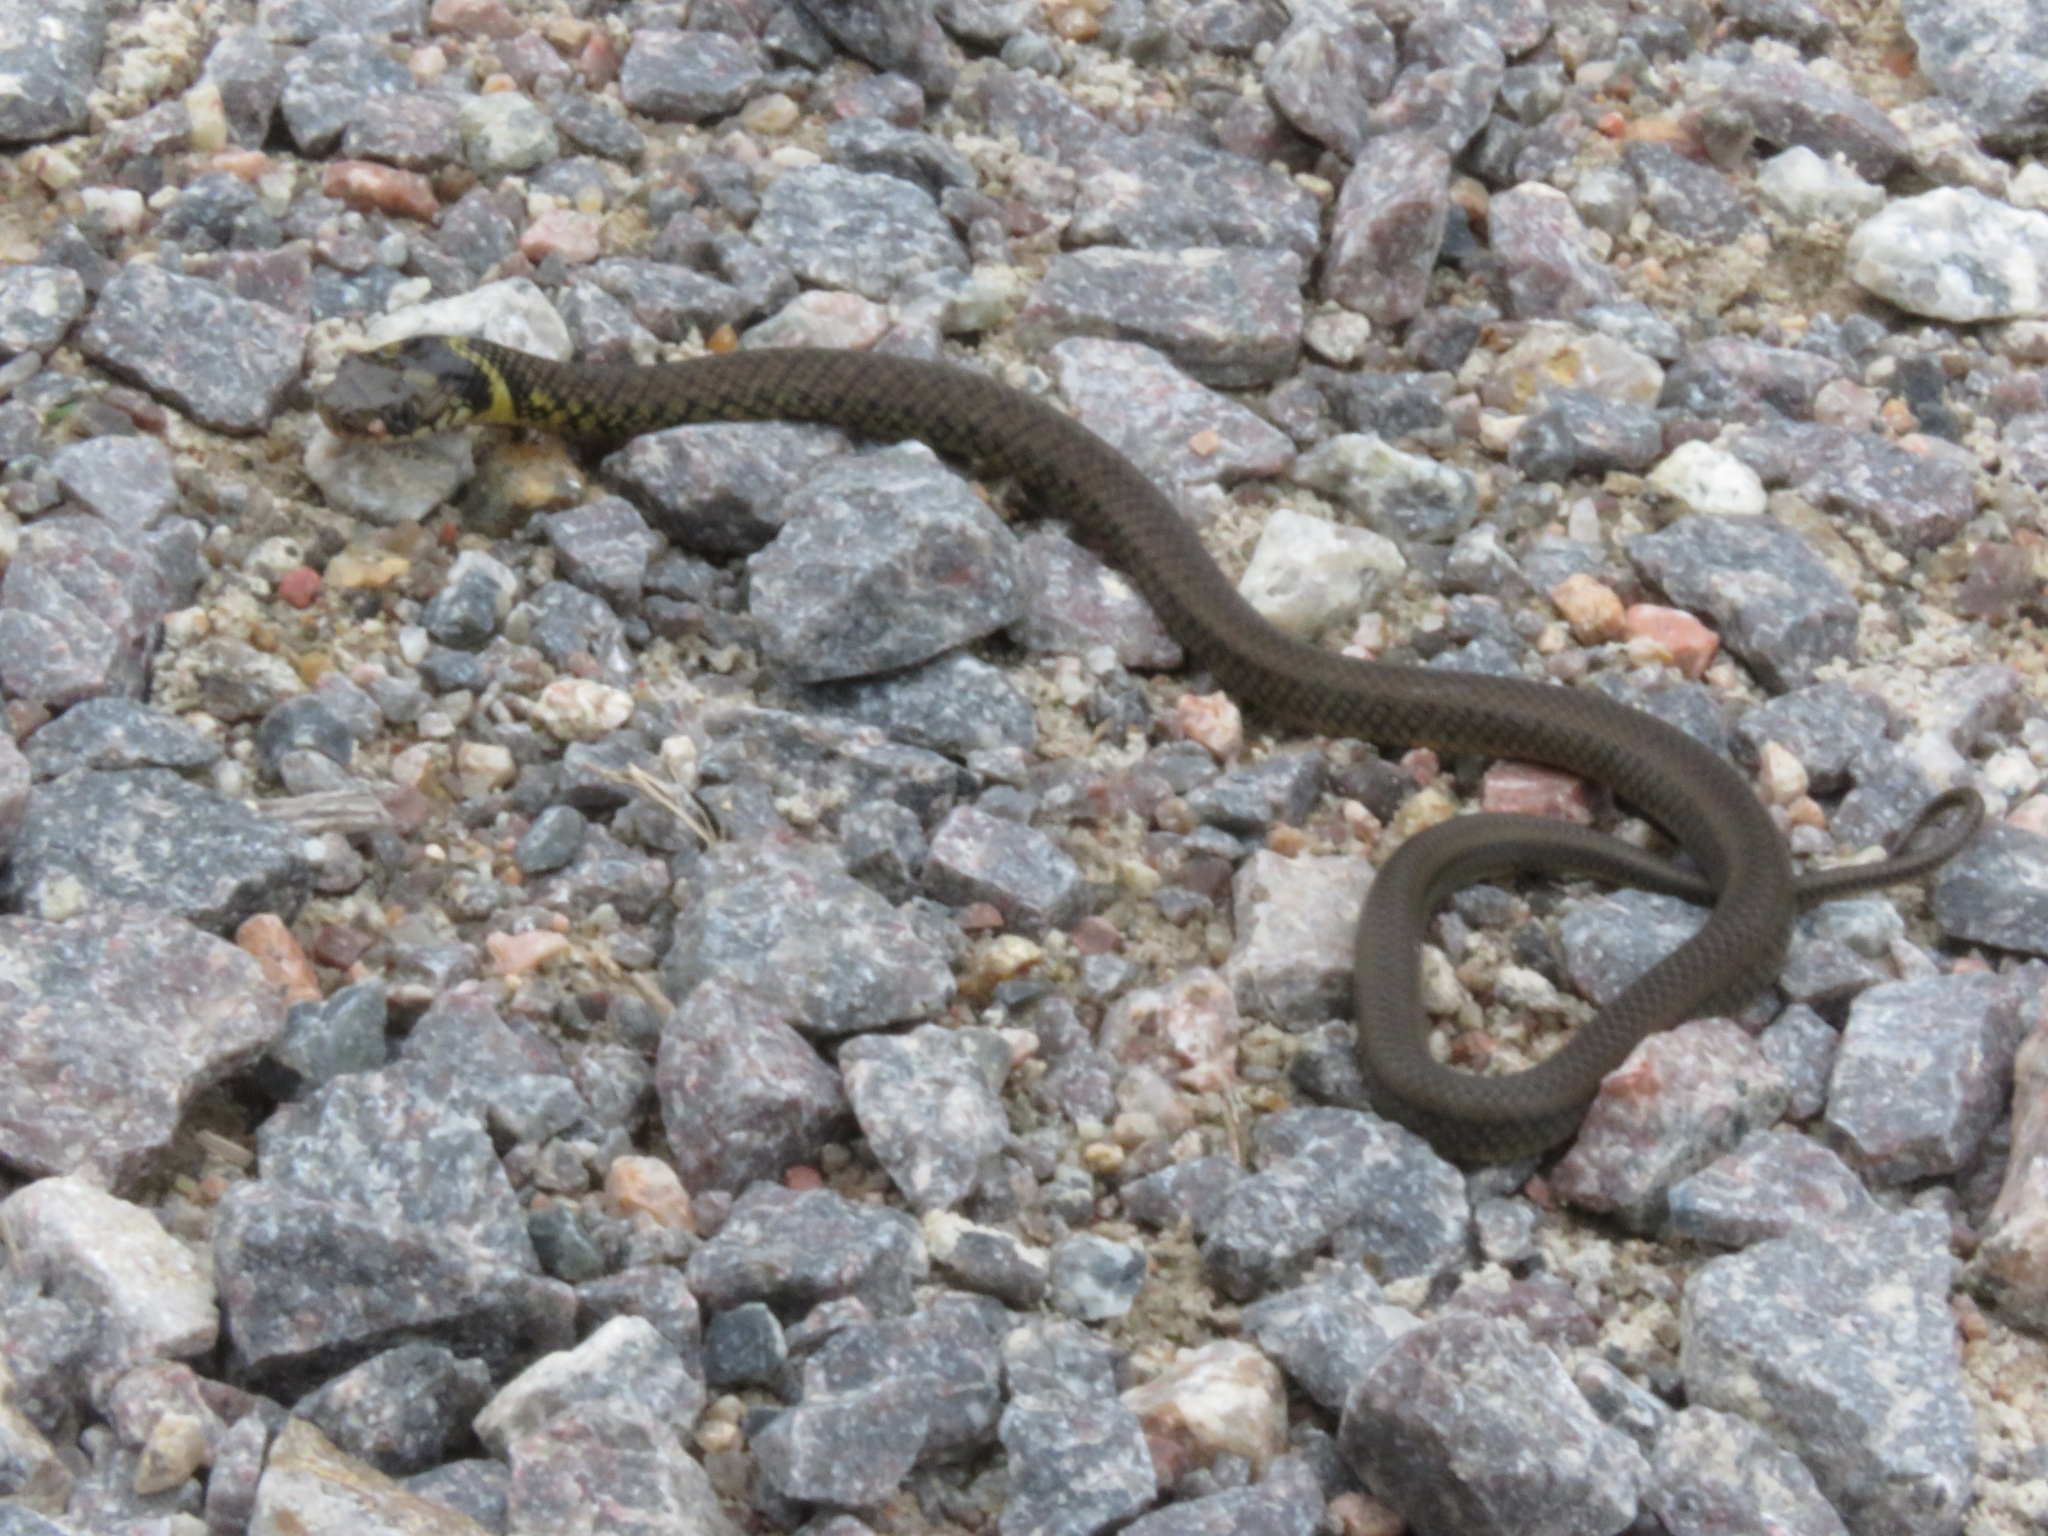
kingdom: Animalia
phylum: Chordata
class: Squamata
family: Colubridae
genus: Erythrolamprus
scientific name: Erythrolamprus miliaris
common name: Military ground snake
